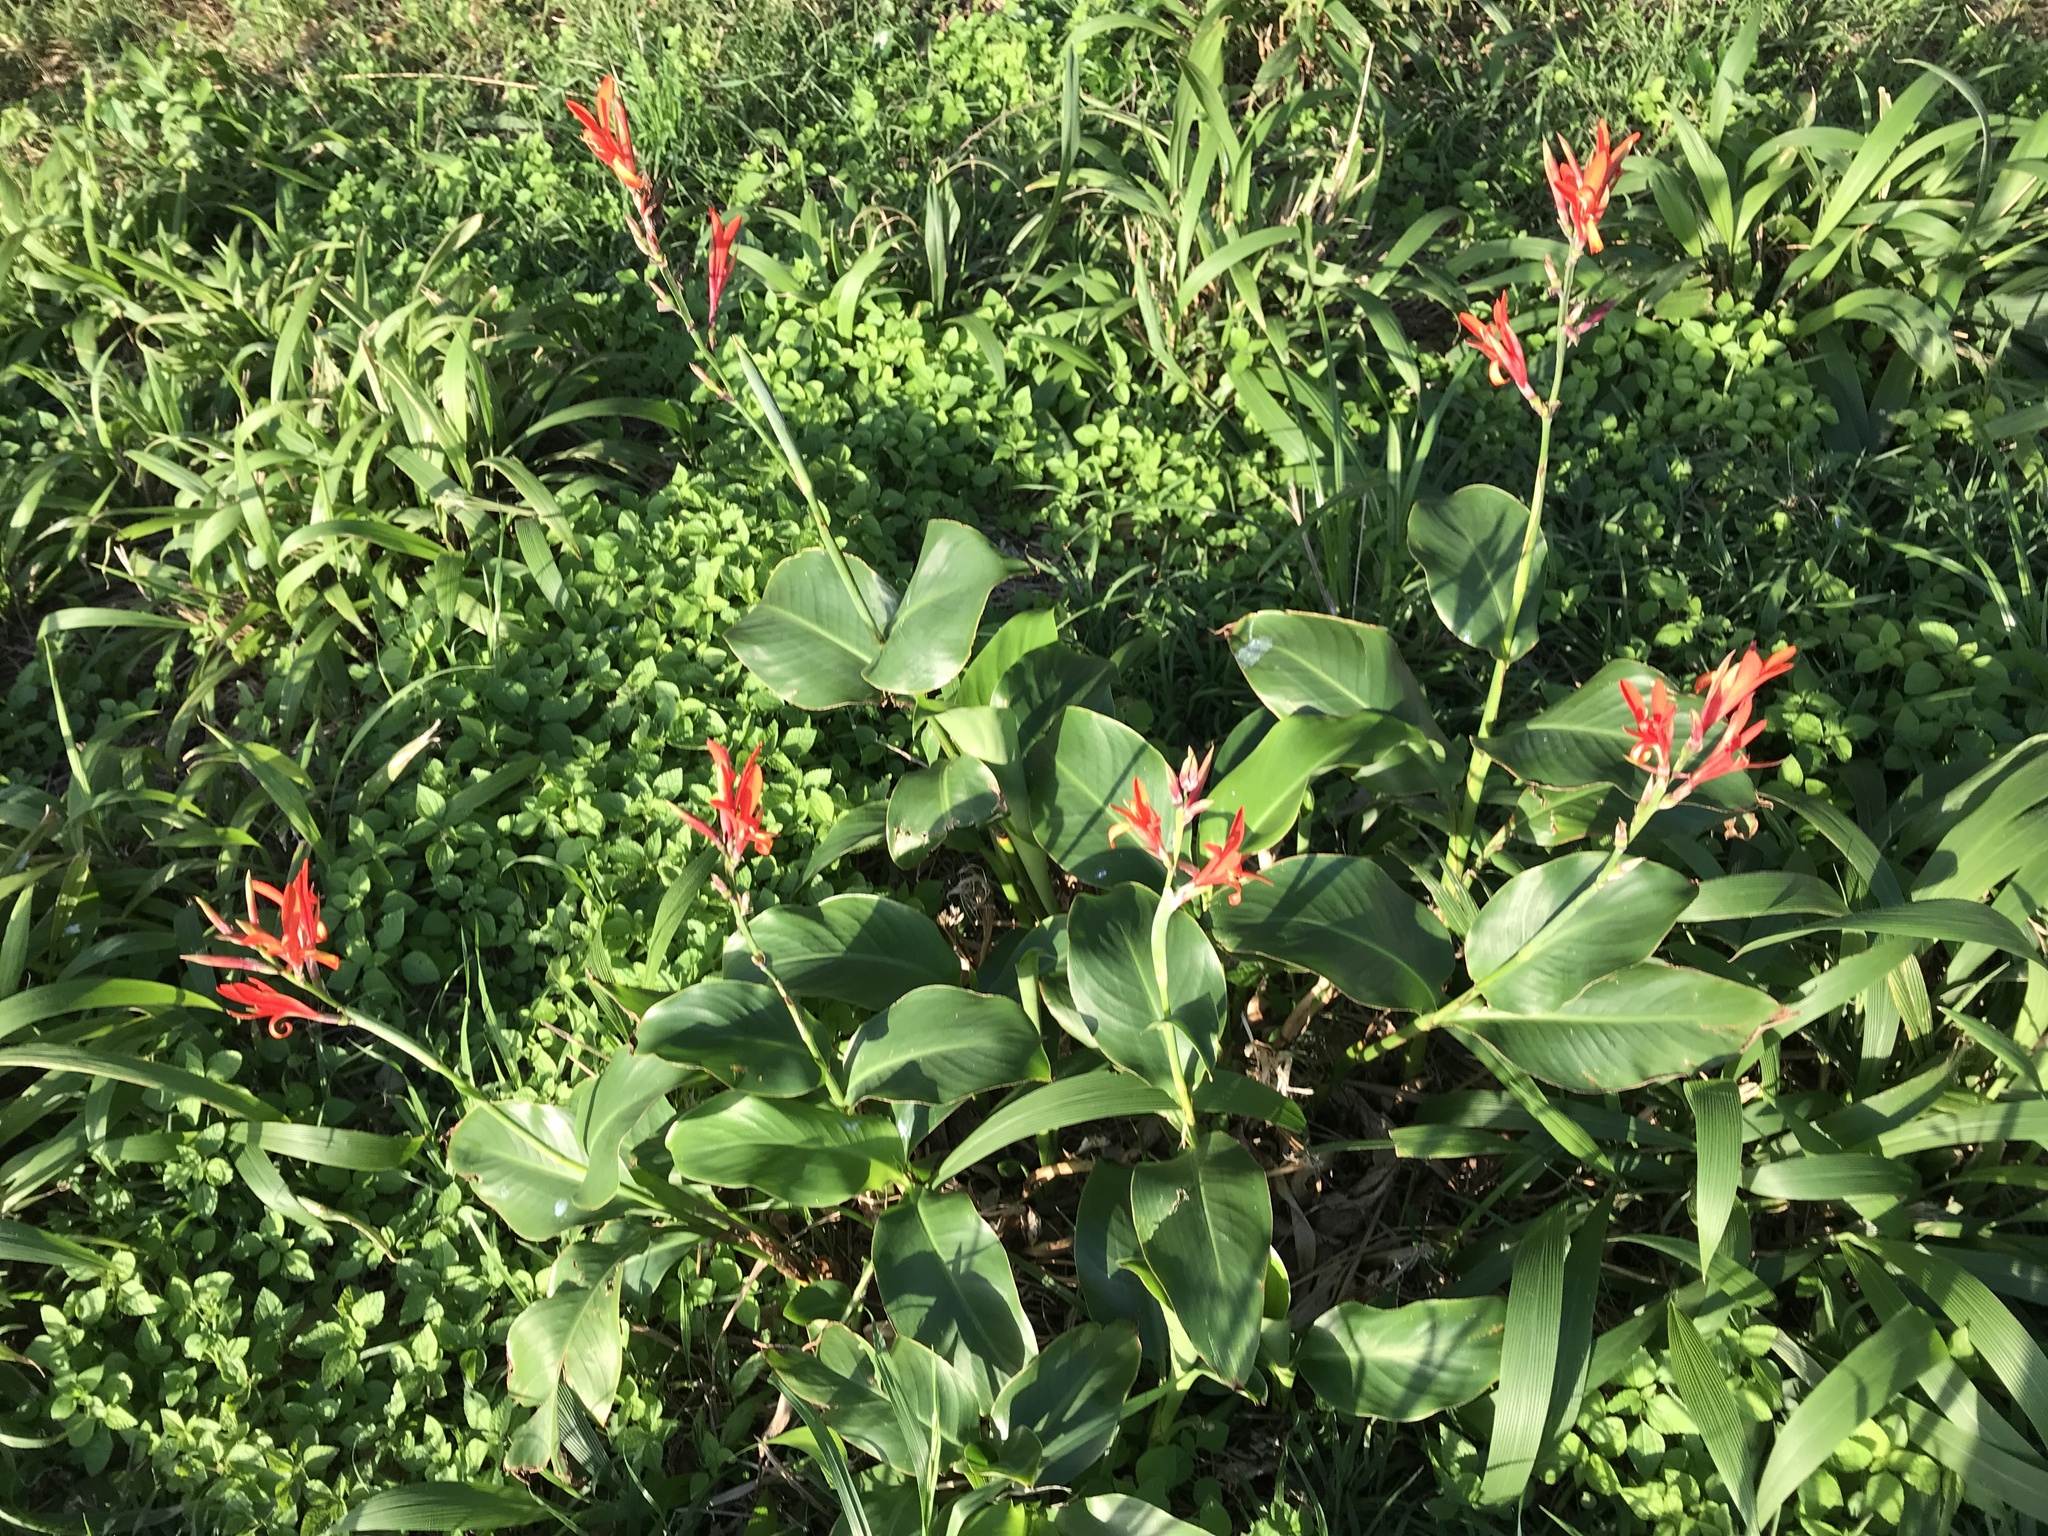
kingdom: Plantae
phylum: Tracheophyta
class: Liliopsida
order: Zingiberales
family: Cannaceae
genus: Canna
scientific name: Canna indica
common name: Indian shot
